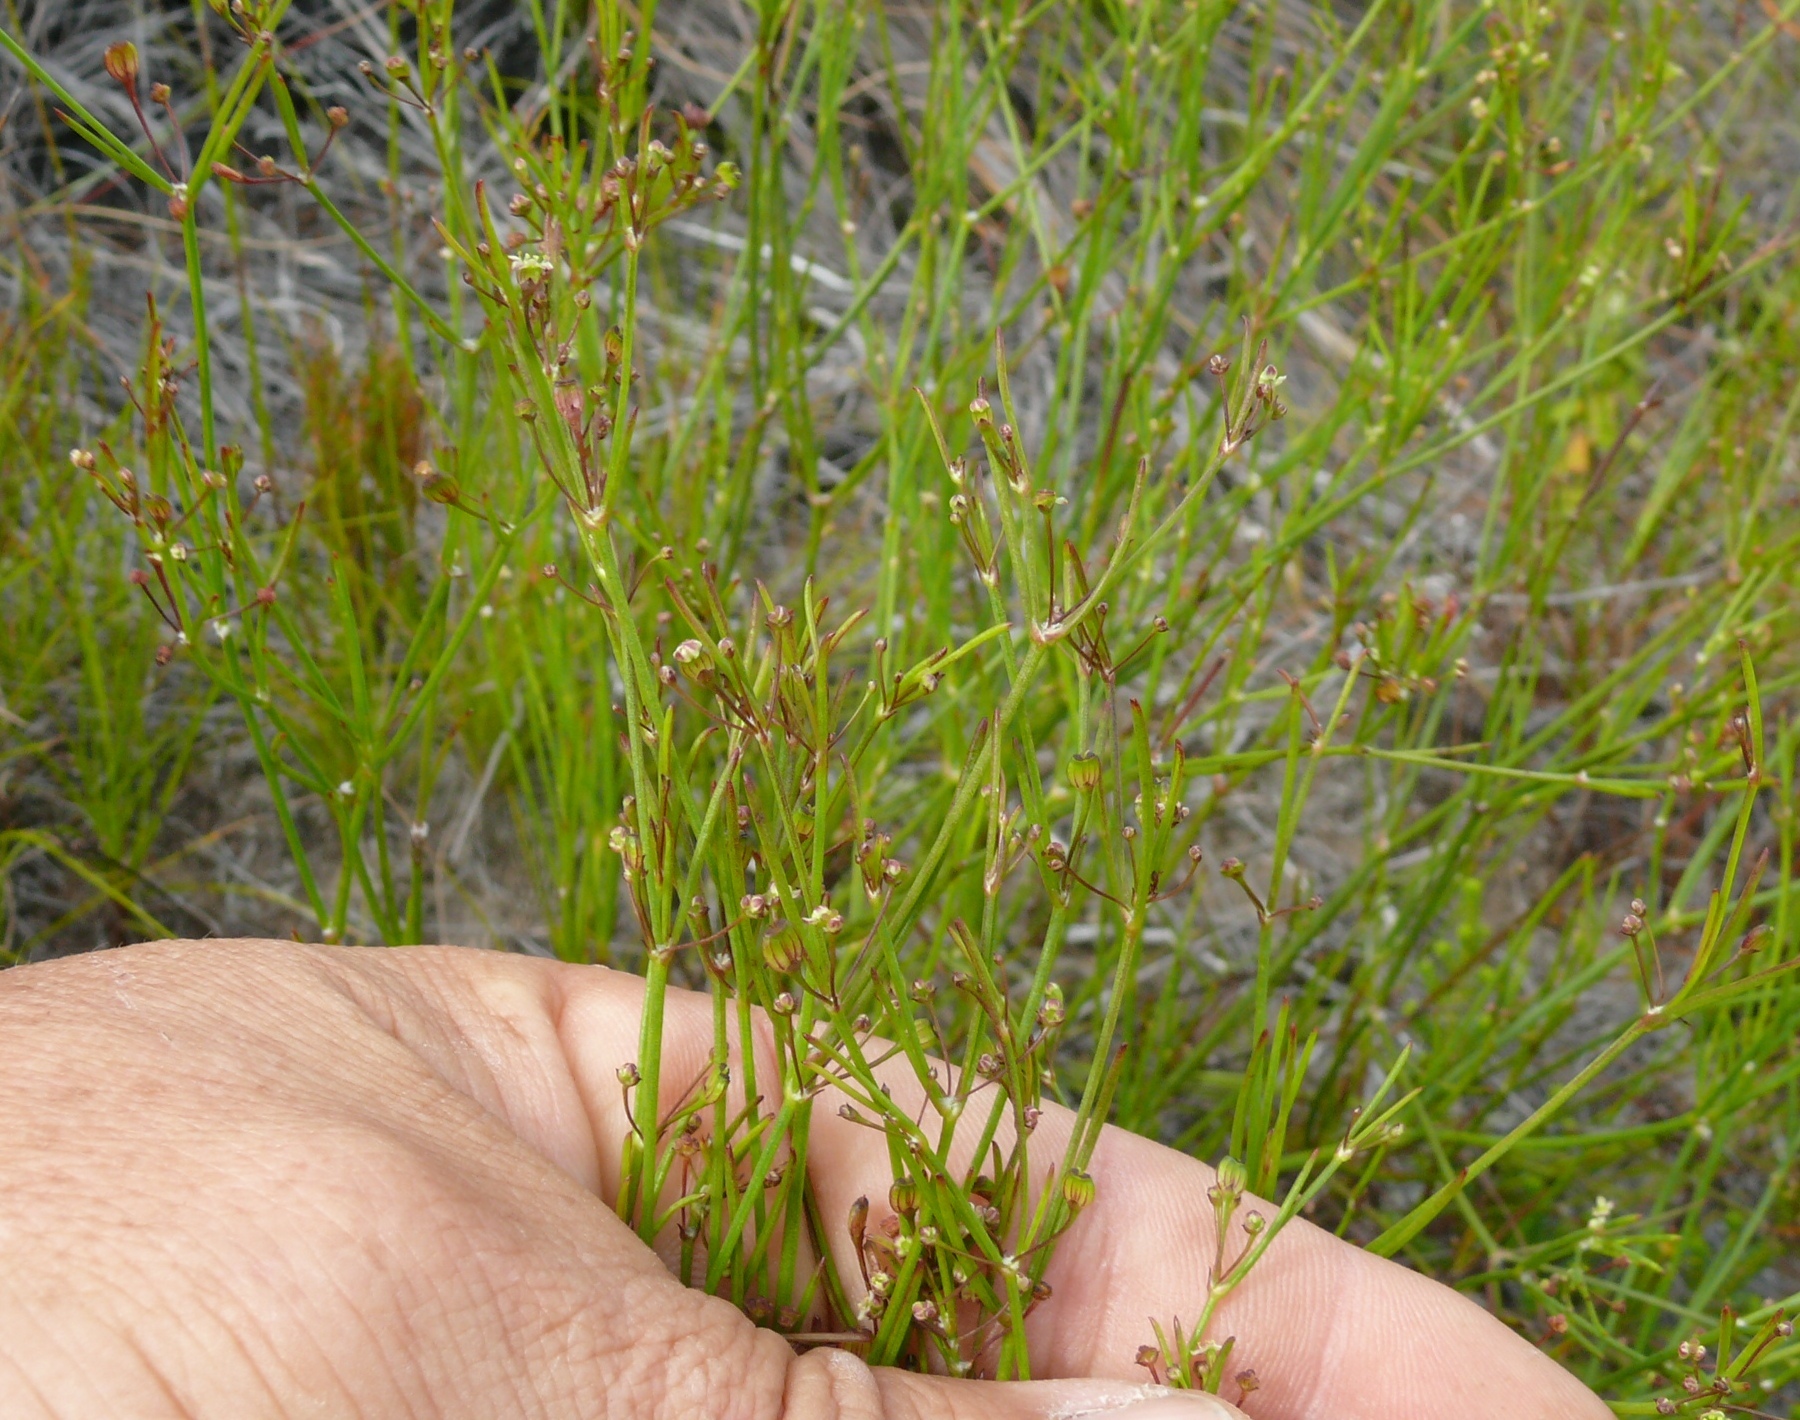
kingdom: Plantae
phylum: Tracheophyta
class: Magnoliopsida
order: Apiales
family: Apiaceae
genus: Centella
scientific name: Centella virgata
